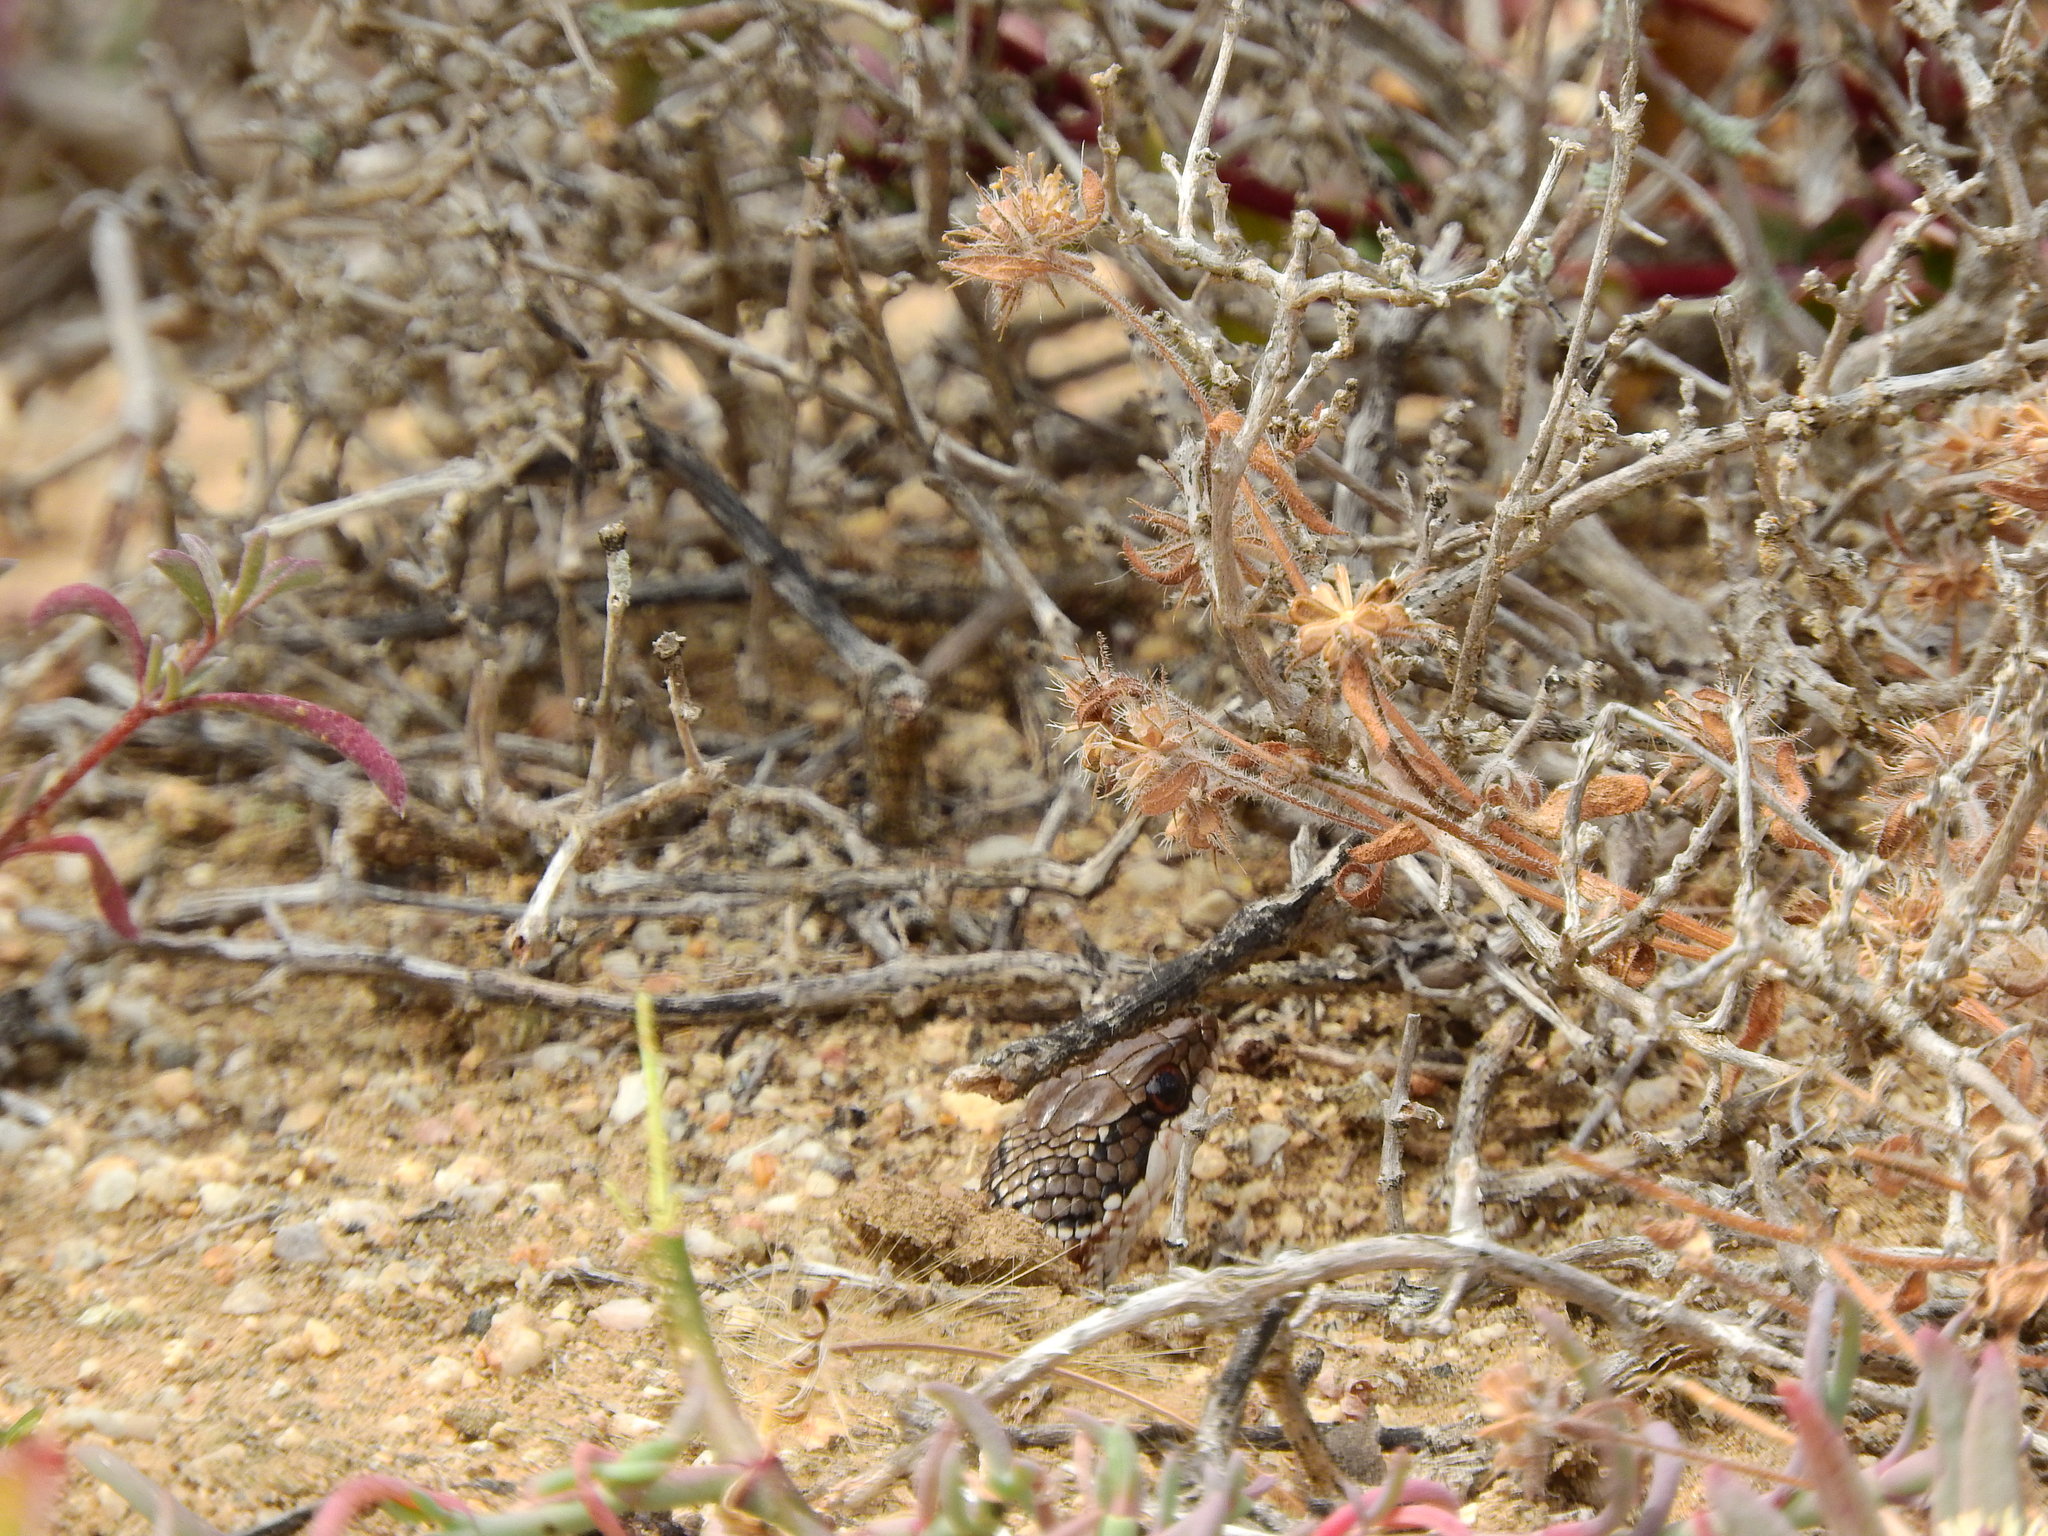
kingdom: Animalia
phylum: Chordata
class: Squamata
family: Psammophiidae
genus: Psammophylax
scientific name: Psammophylax rhombeatus
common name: Rhombic skaapsteker
